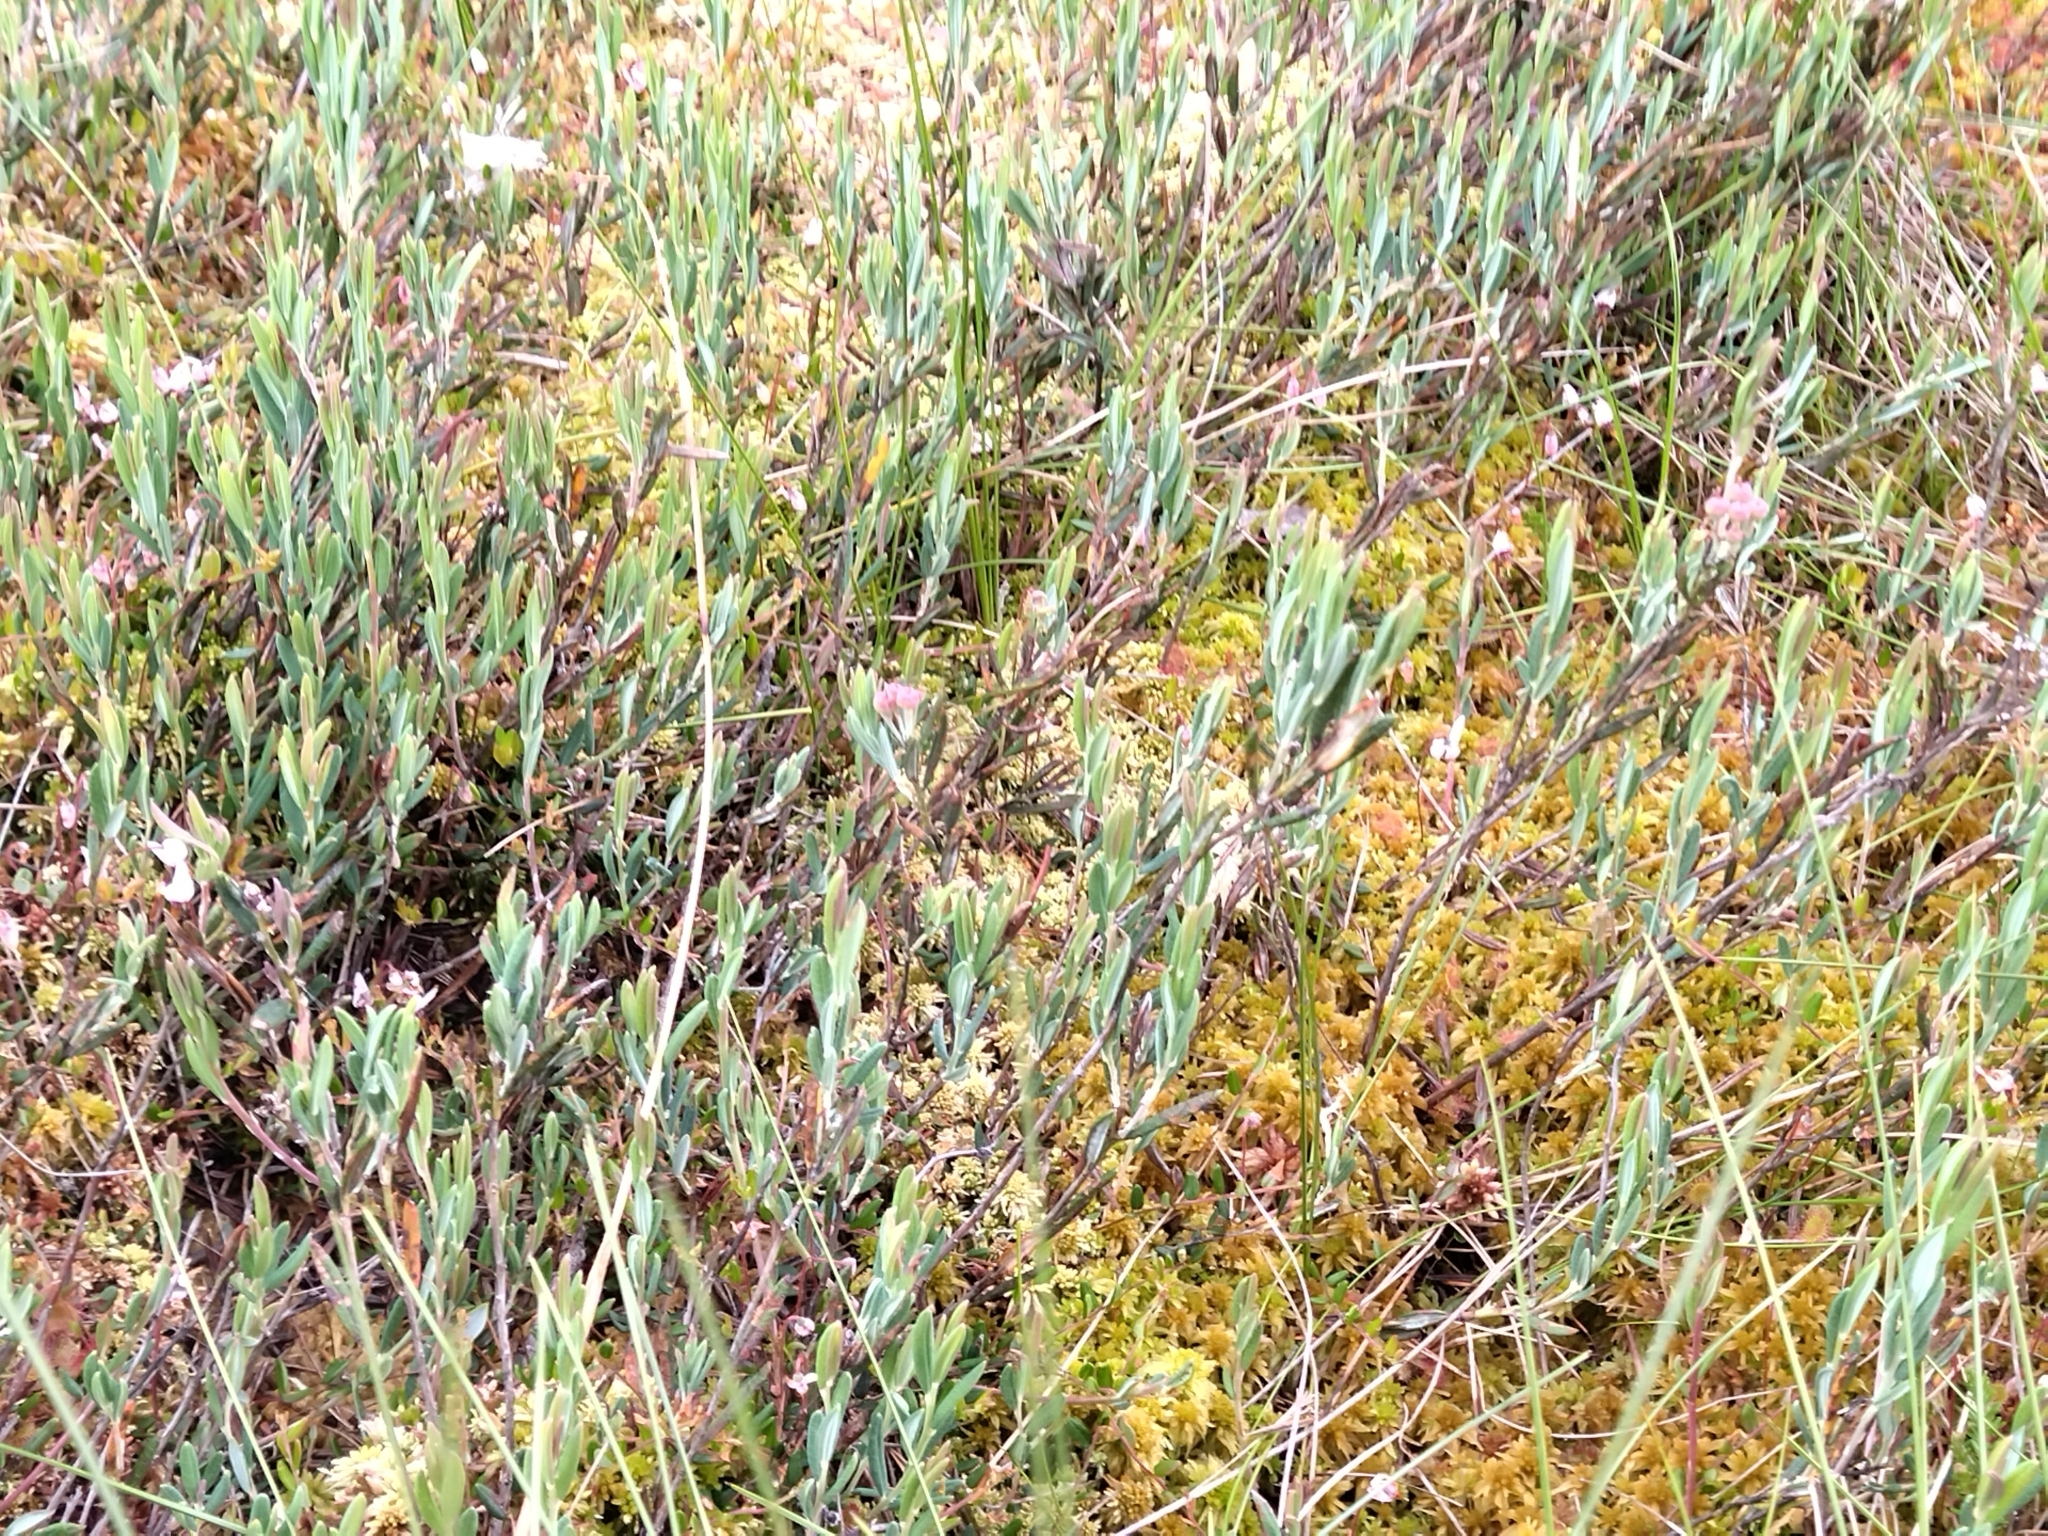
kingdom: Plantae
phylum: Tracheophyta
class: Magnoliopsida
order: Ericales
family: Ericaceae
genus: Andromeda
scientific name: Andromeda polifolia
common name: Bog-rosemary
